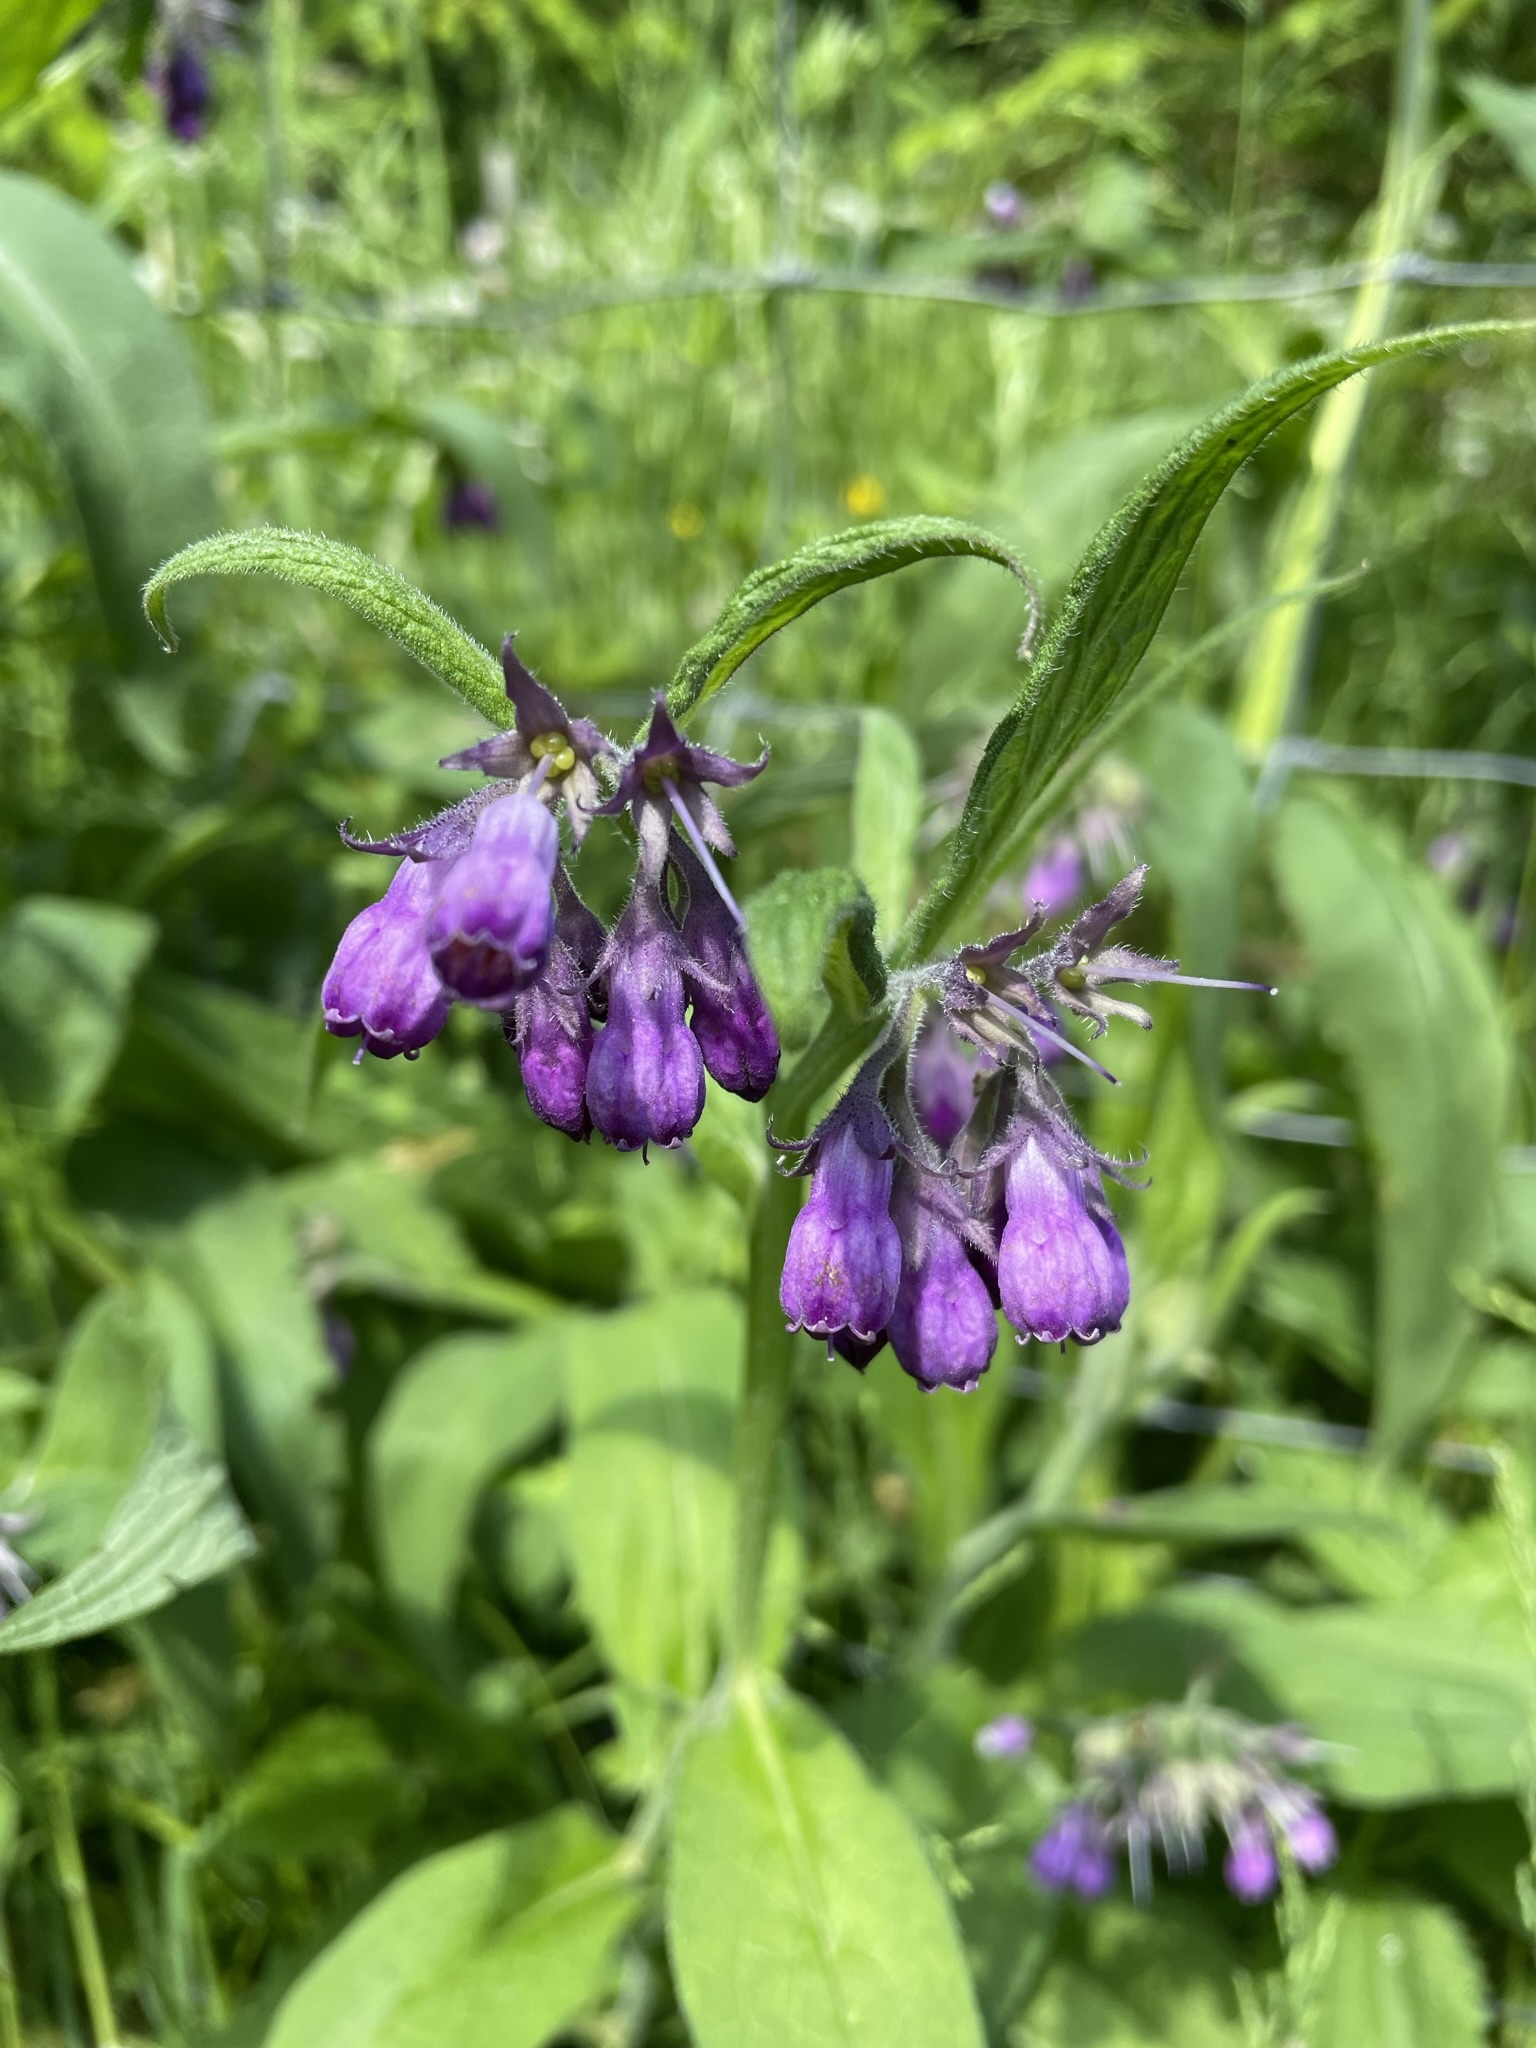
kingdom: Plantae
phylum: Tracheophyta
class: Magnoliopsida
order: Boraginales
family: Boraginaceae
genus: Symphytum
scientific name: Symphytum officinale
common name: Common comfrey
